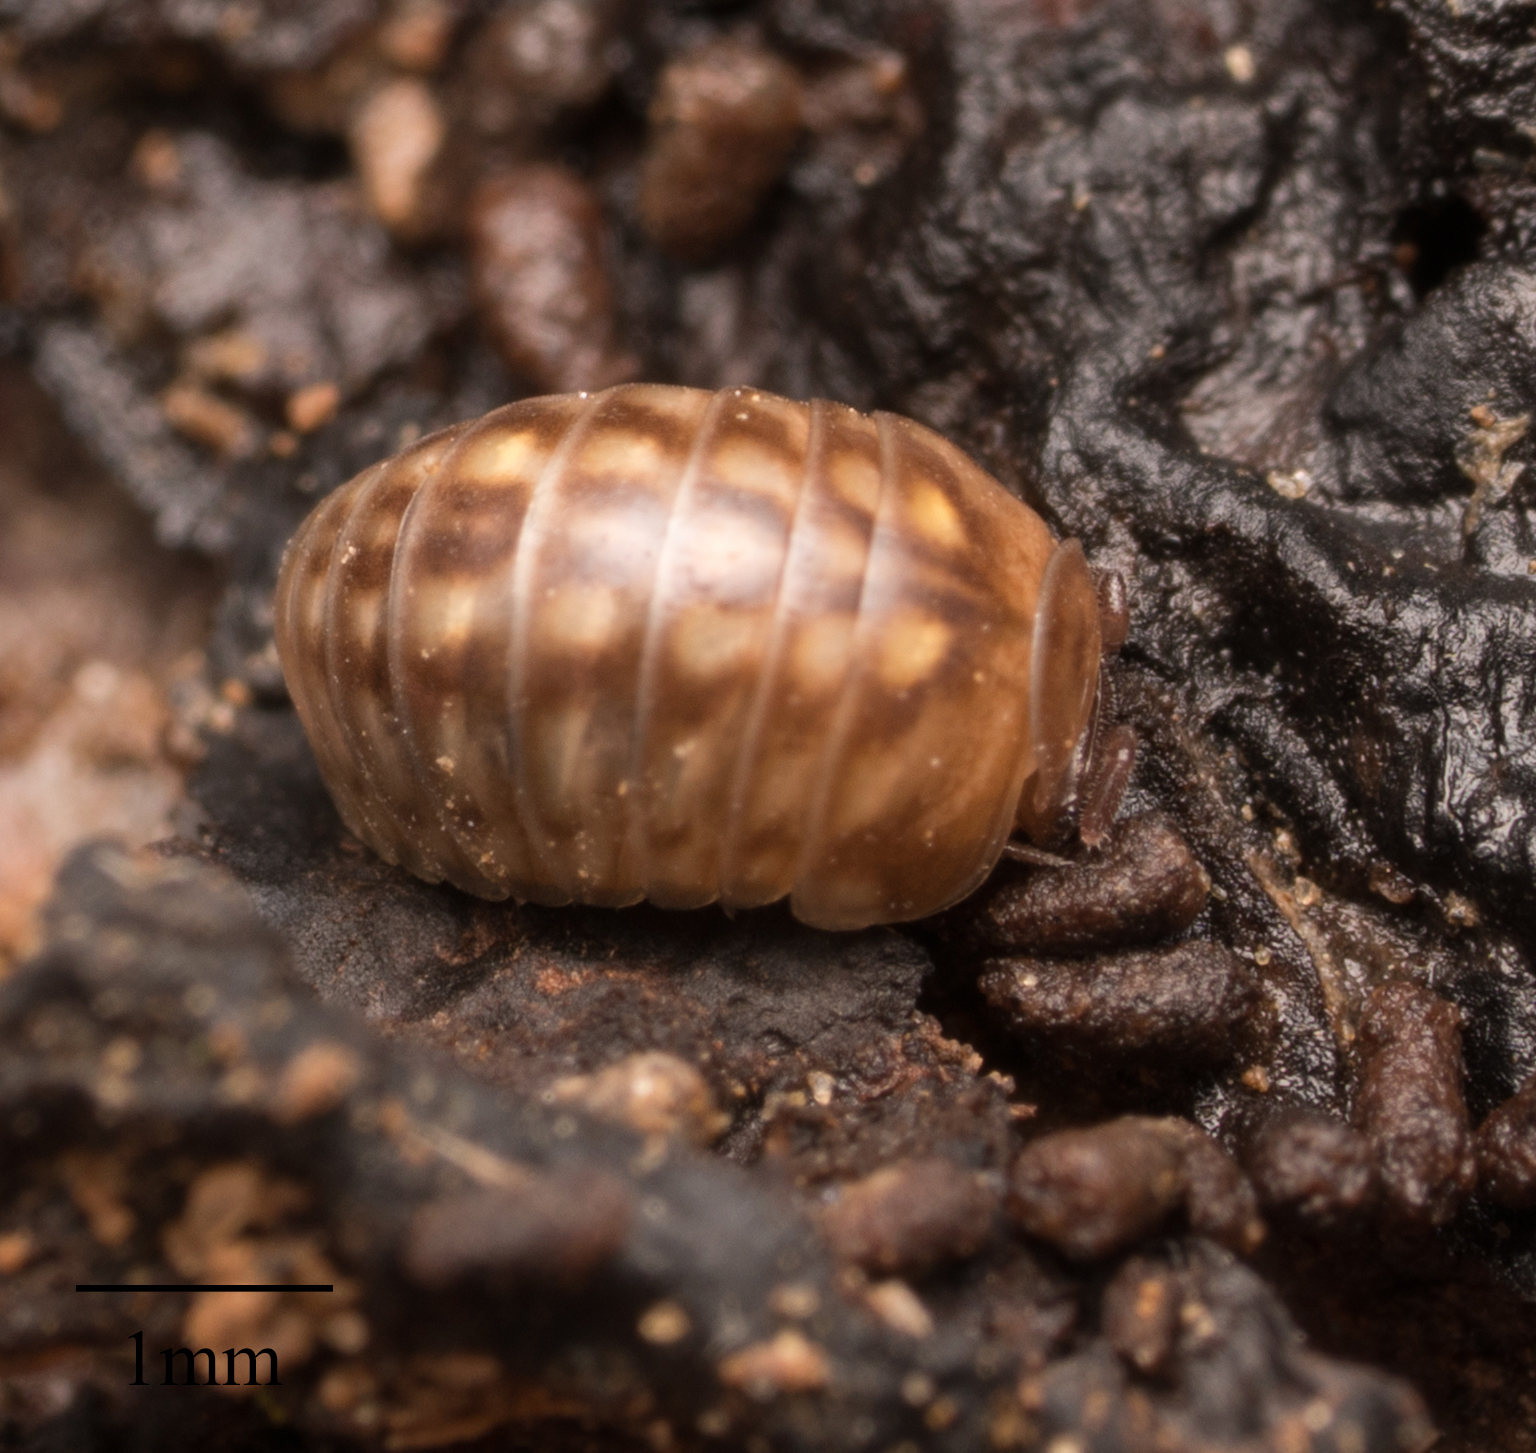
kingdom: Animalia
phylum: Arthropoda
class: Diplopoda
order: Glomerida
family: Glomeridae
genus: Glomeris
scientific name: Glomeris marginata
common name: Bordered pill millipede
